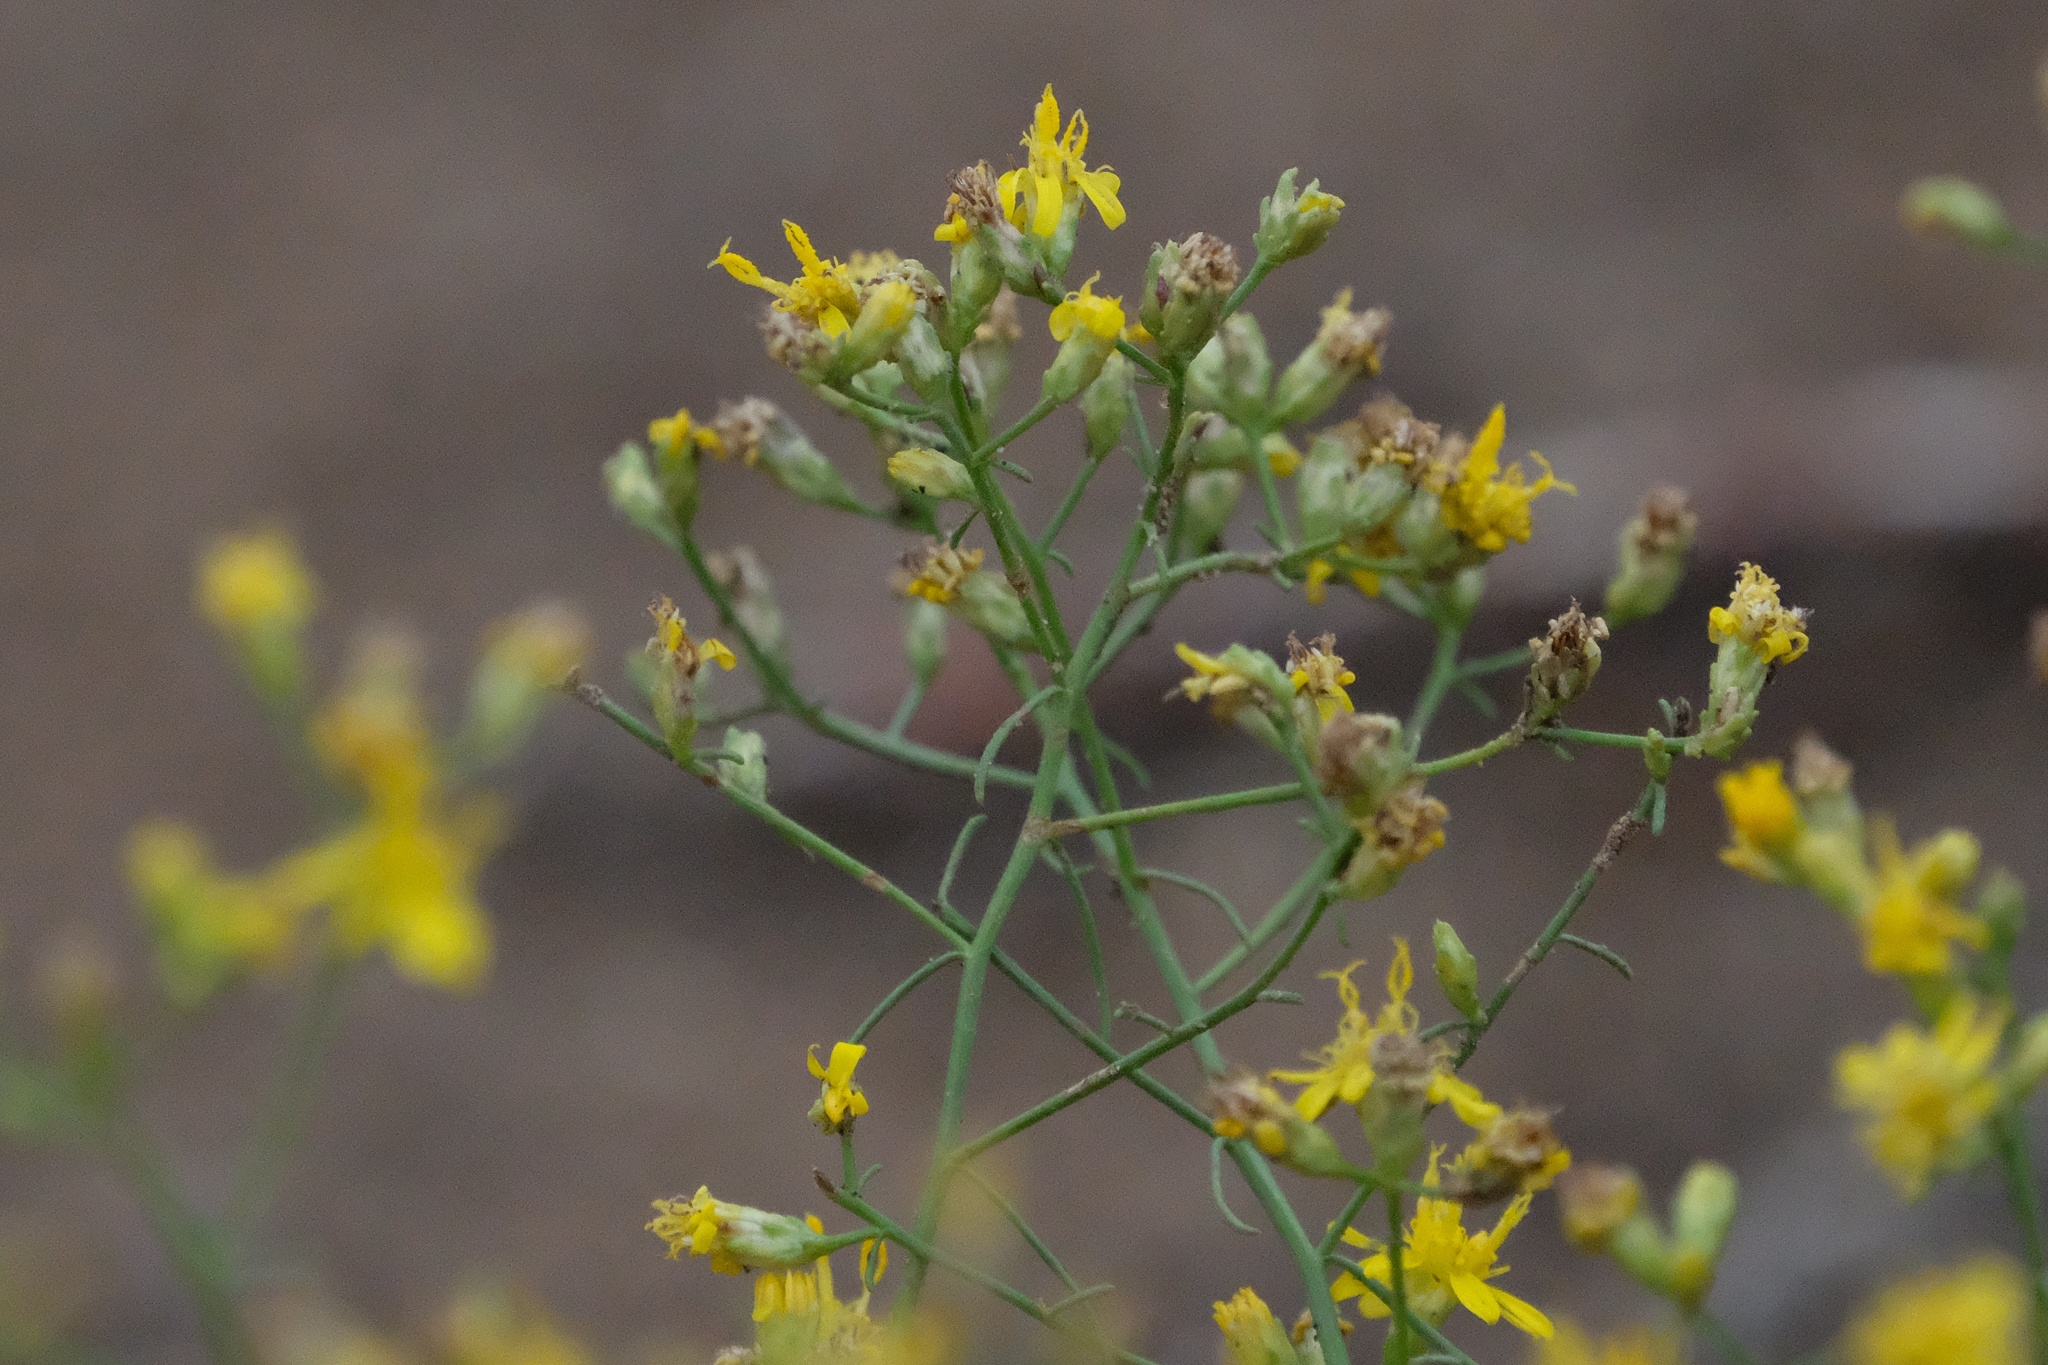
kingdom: Plantae
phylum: Tracheophyta
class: Magnoliopsida
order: Asterales
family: Asteraceae
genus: Gutierrezia
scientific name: Gutierrezia sarothrae
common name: Broom snakeweed
